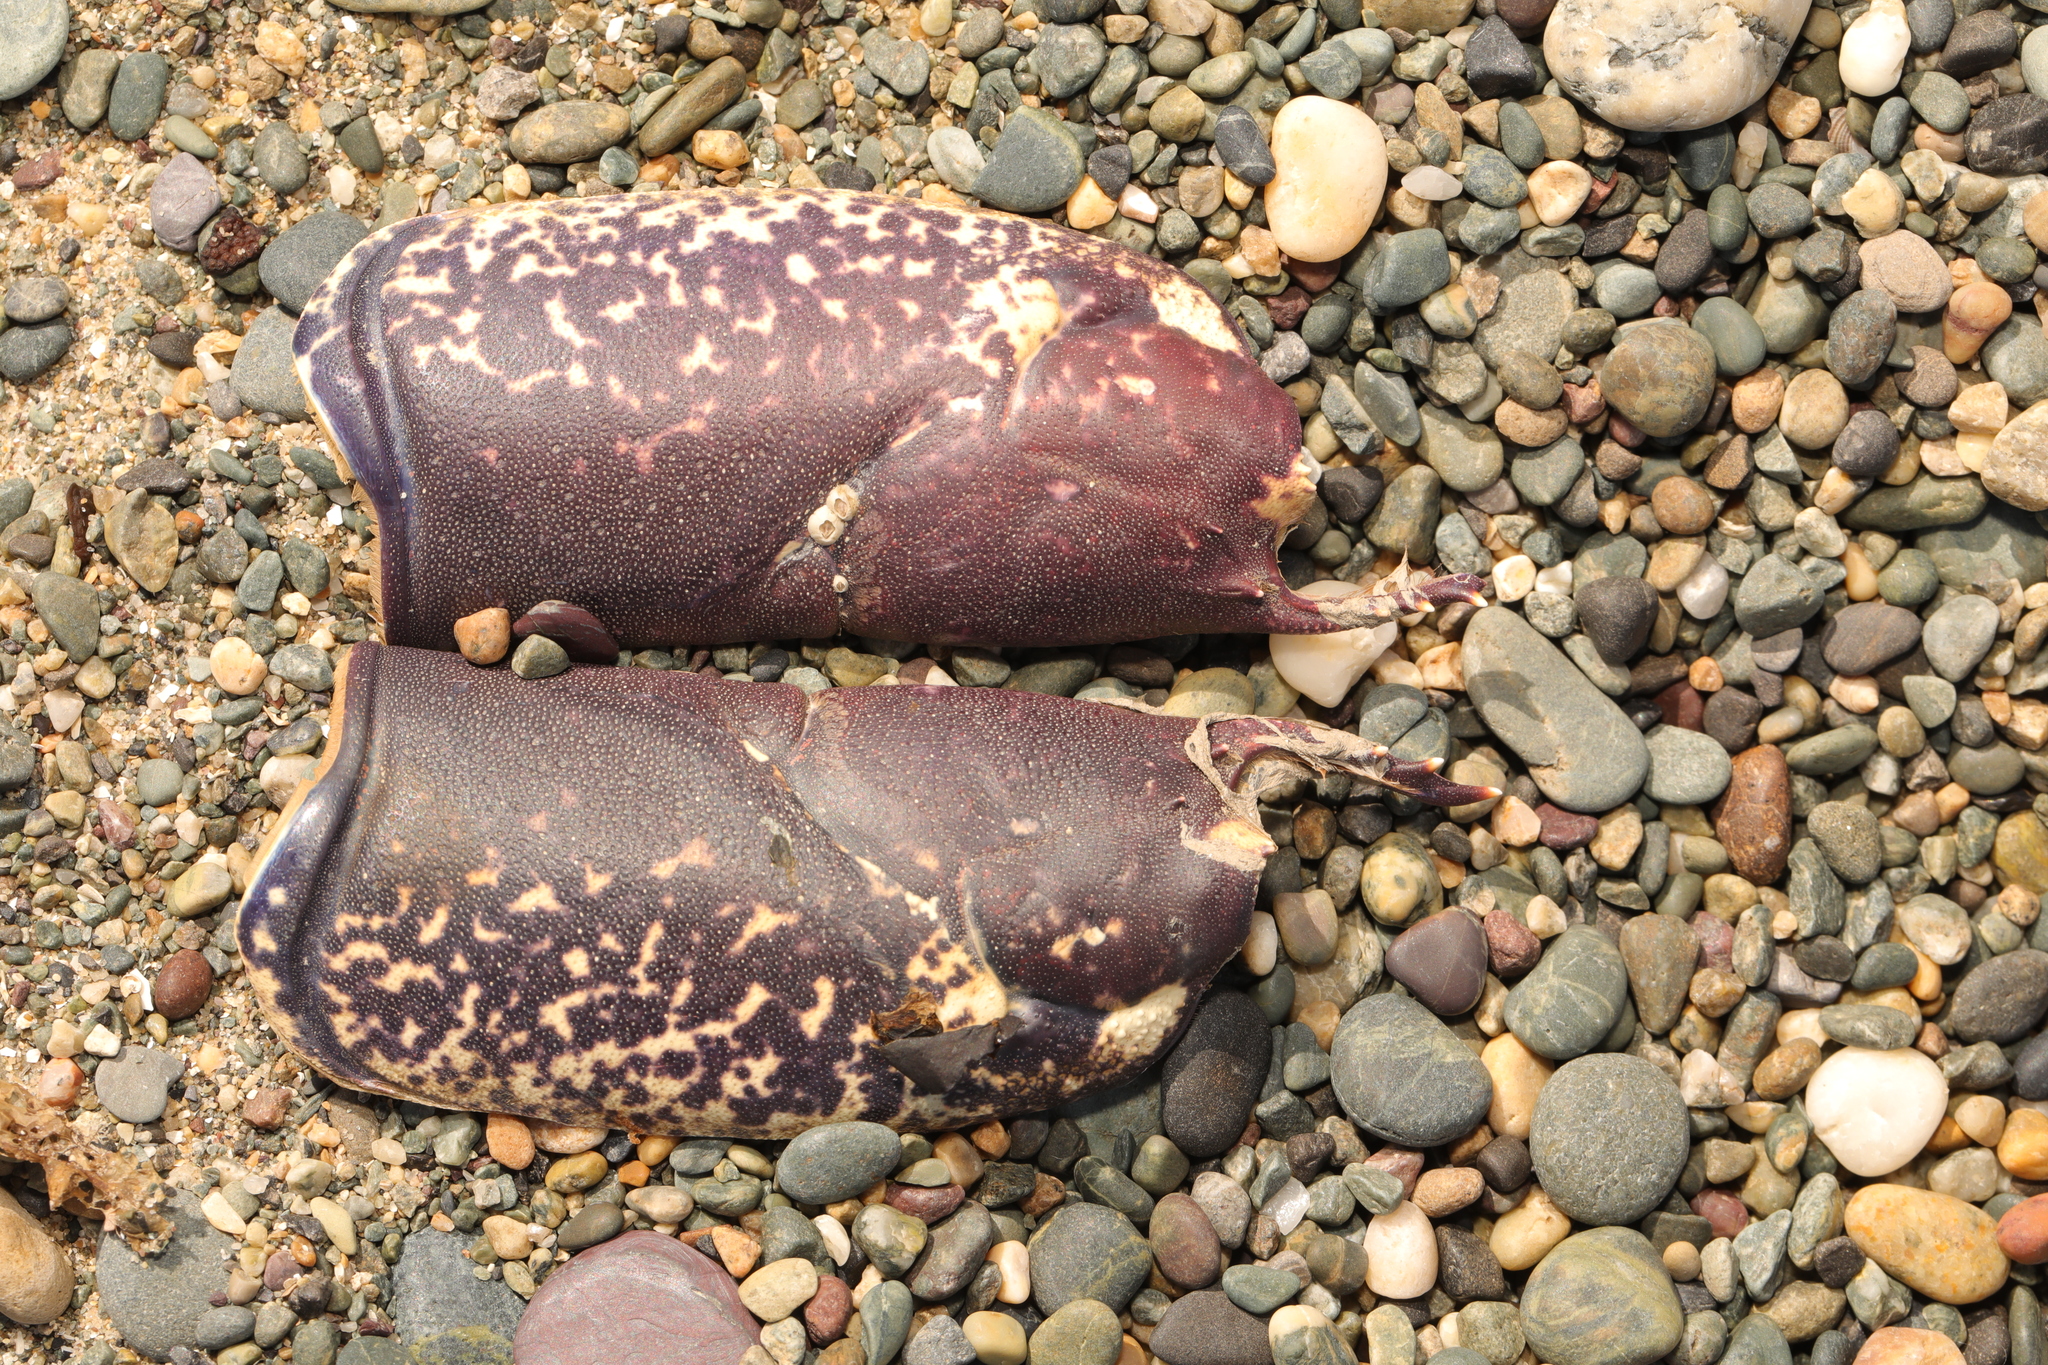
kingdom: Animalia
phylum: Arthropoda
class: Malacostraca
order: Decapoda
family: Nephropidae
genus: Homarus
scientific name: Homarus gammarus
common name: European lobster
